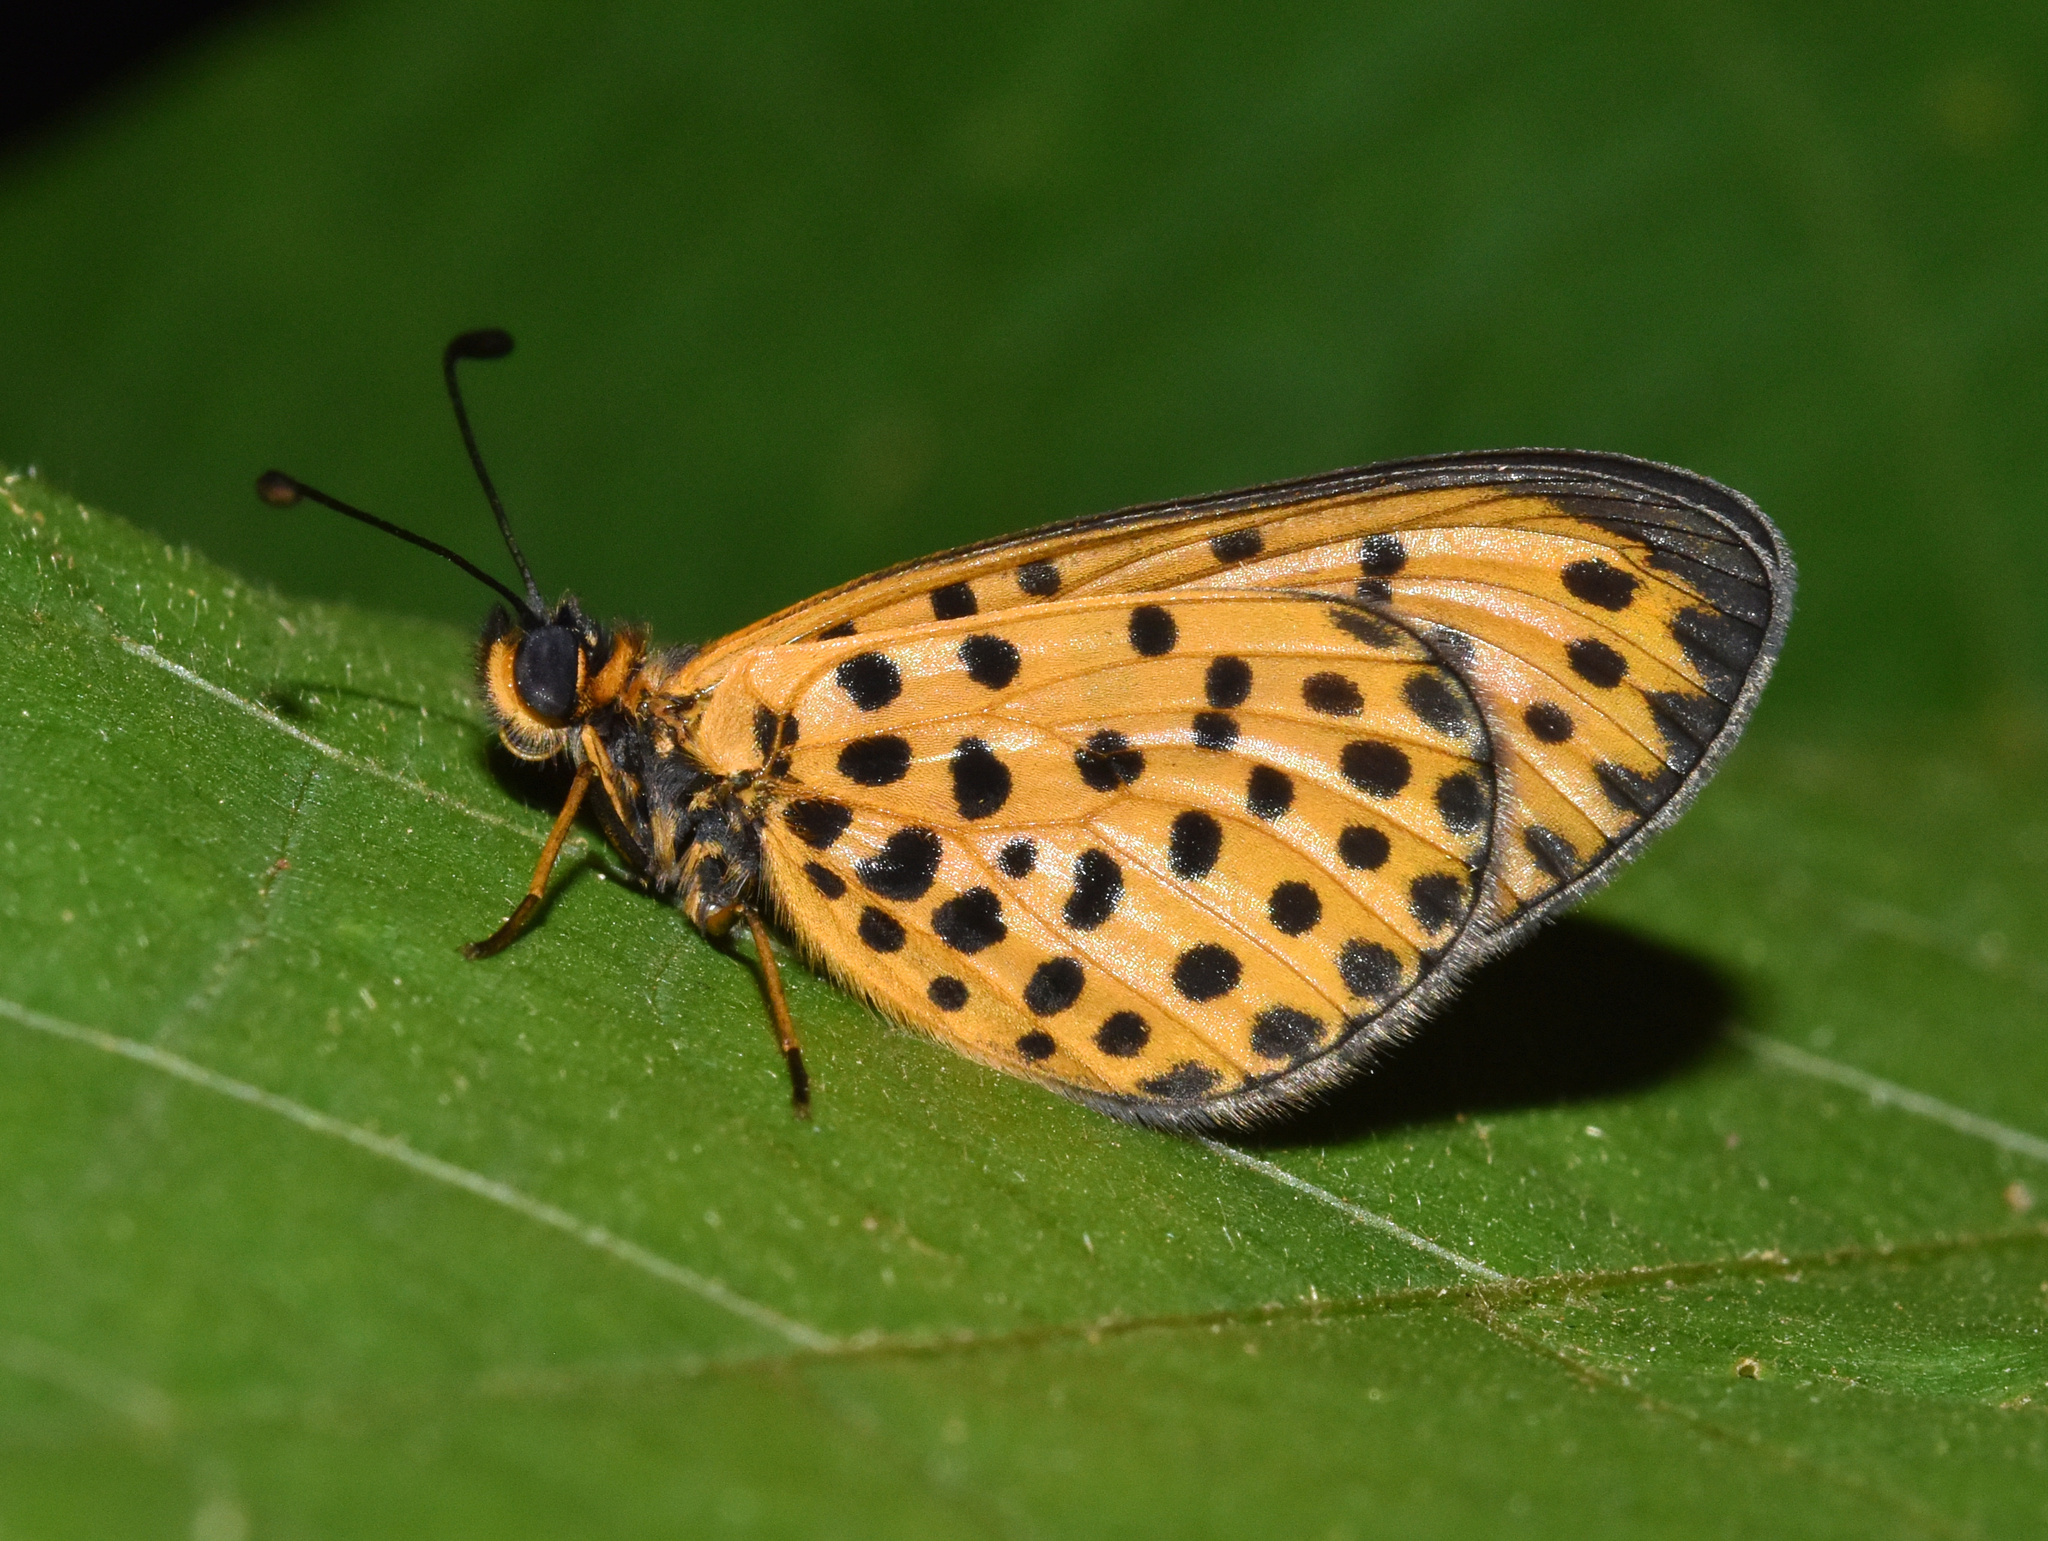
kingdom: Animalia
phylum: Arthropoda
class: Insecta
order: Lepidoptera
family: Nymphalidae
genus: Pardopsis
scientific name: Pardopsis punctatissima
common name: Polka dot
